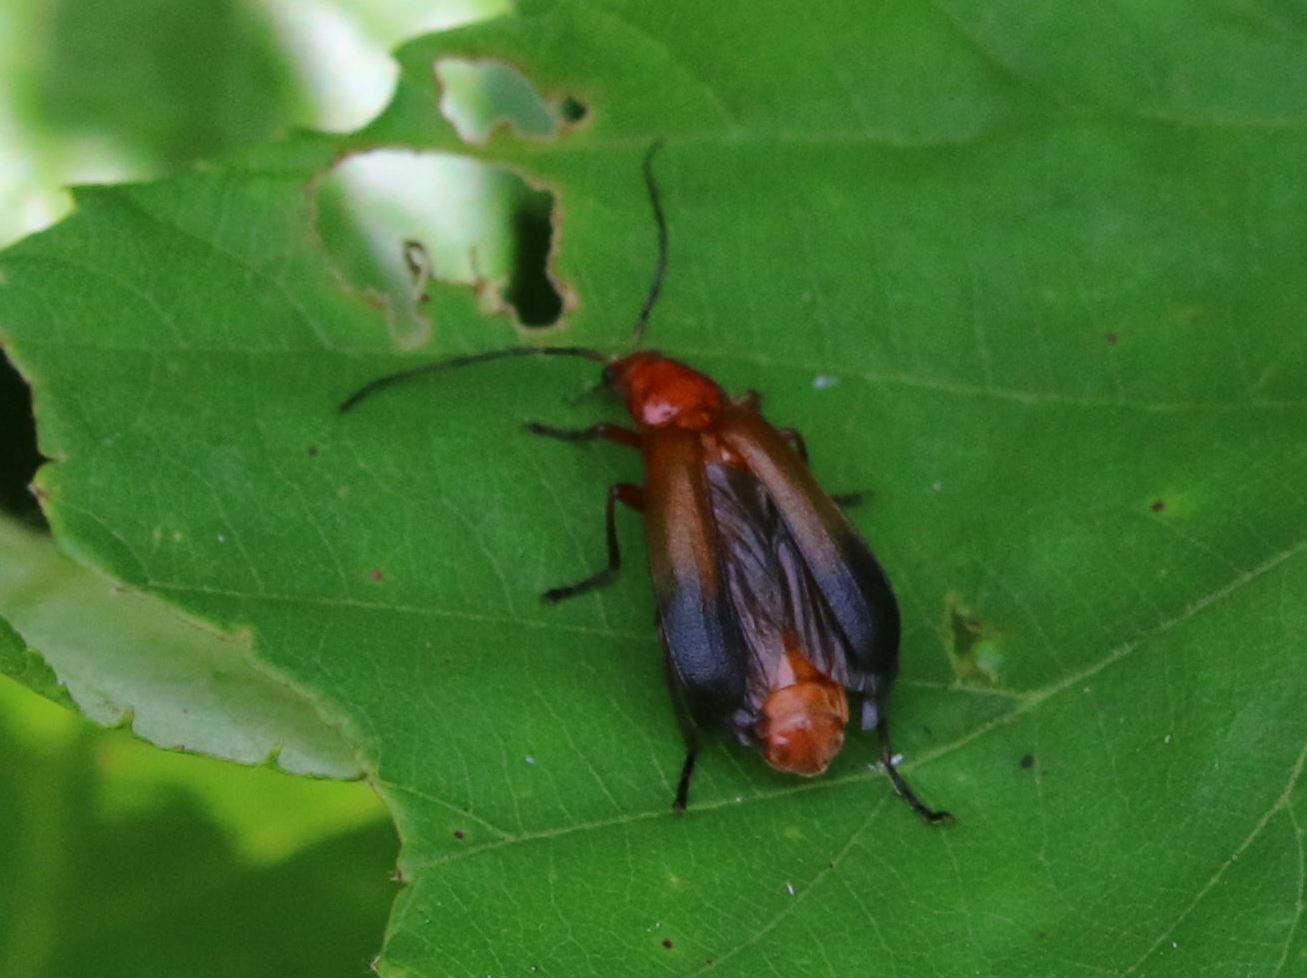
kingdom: Animalia
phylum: Arthropoda
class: Insecta
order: Coleoptera
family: Cantharidae
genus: Rhagonycha
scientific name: Rhagonycha fulva
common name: Common red soldier beetle
